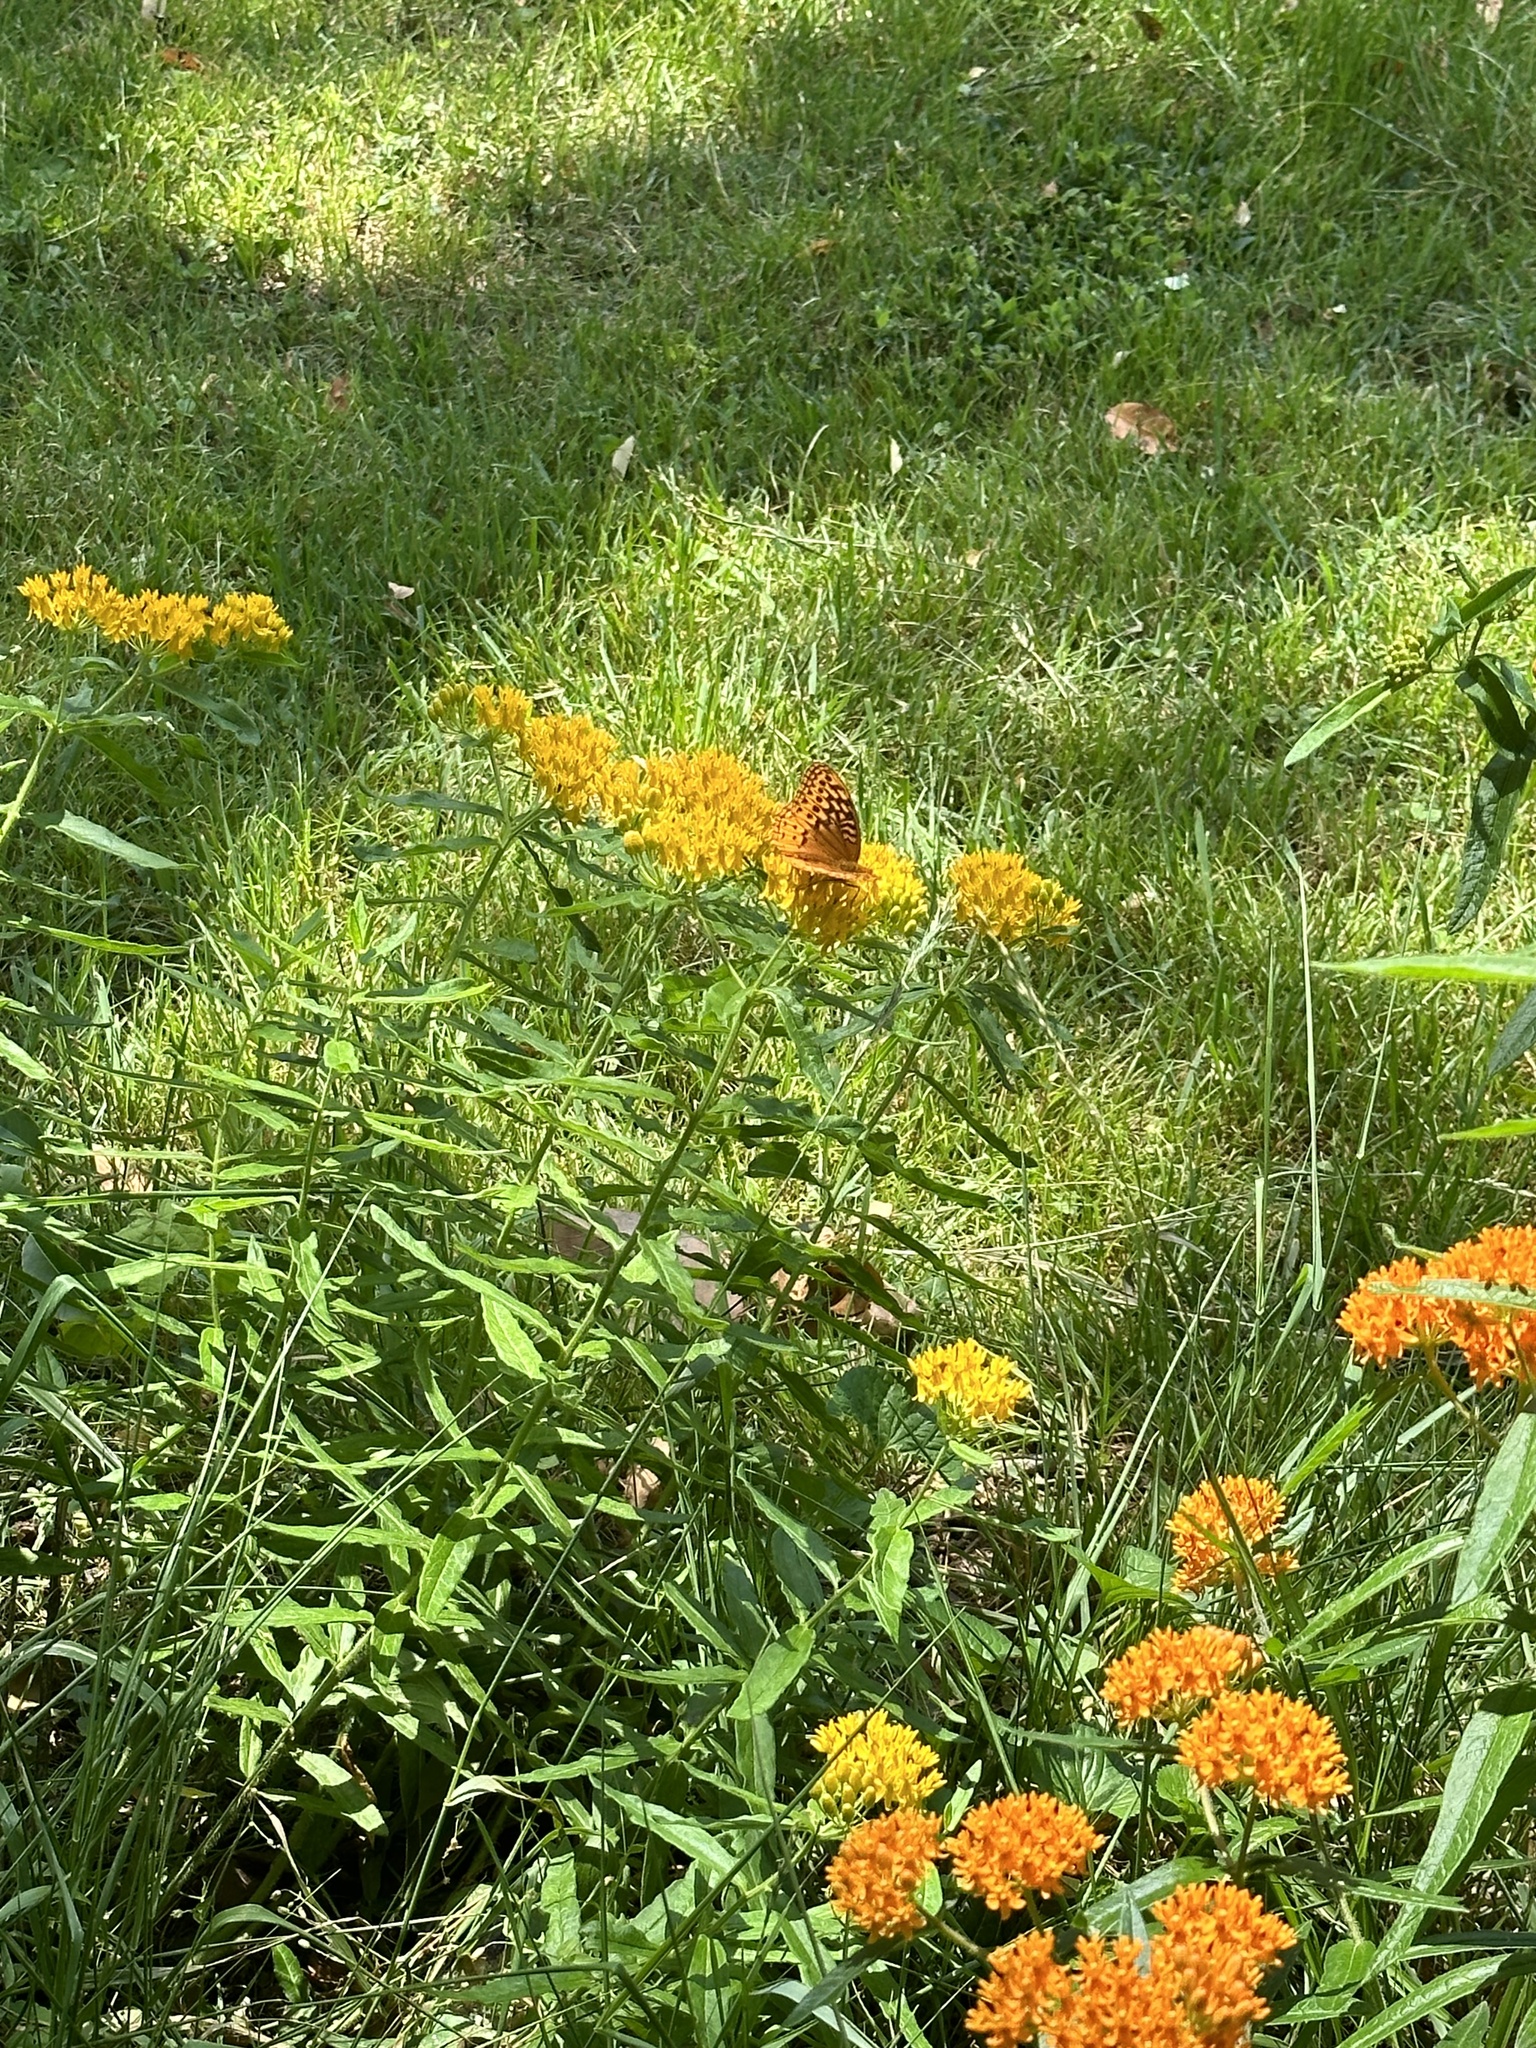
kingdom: Animalia
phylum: Arthropoda
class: Insecta
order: Lepidoptera
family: Nymphalidae
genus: Speyeria
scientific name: Speyeria cybele
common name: Great spangled fritillary
